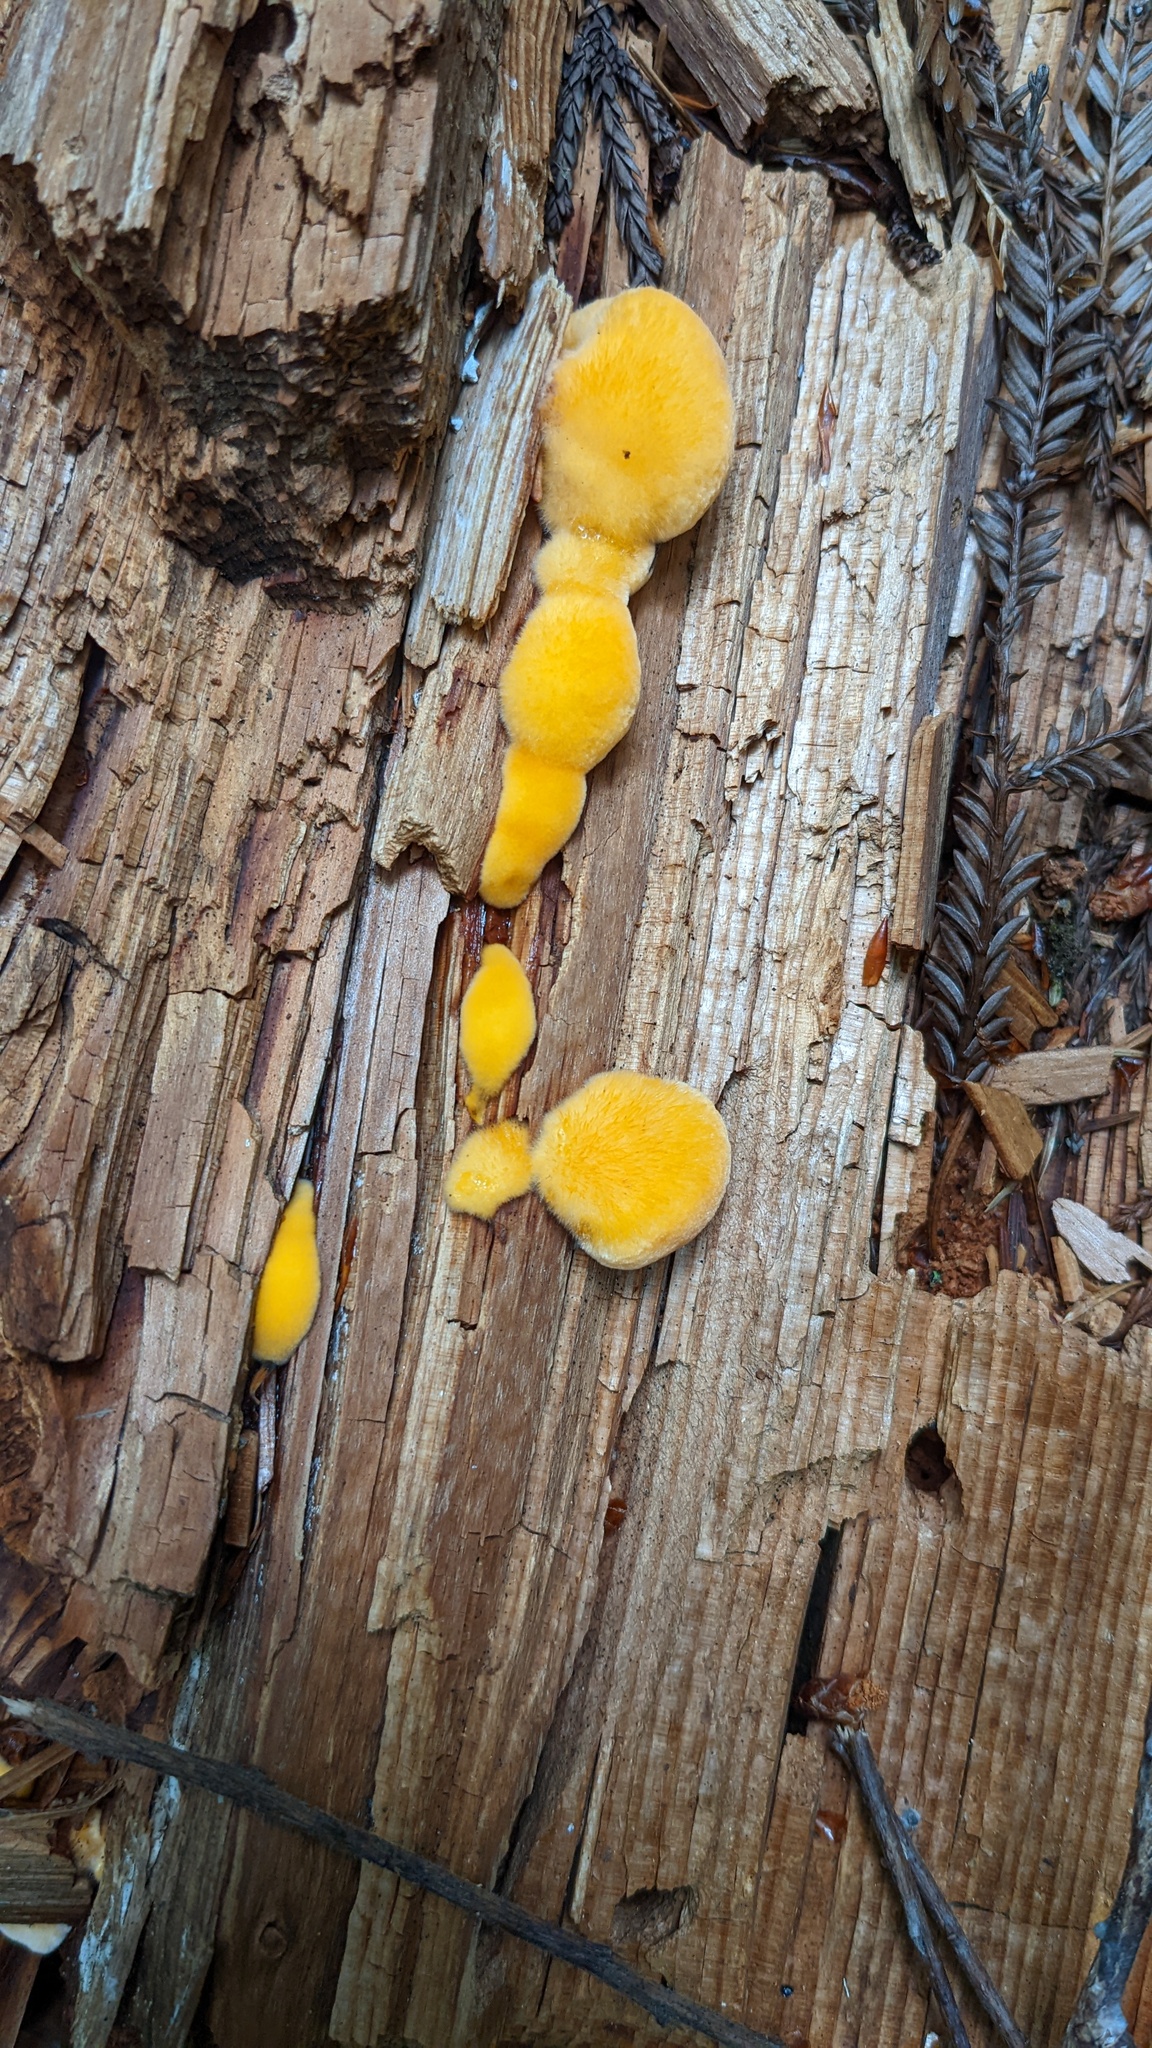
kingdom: Fungi
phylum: Basidiomycota
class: Agaricomycetes
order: Polyporales
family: Pycnoporellaceae
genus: Pycnoporellus
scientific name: Pycnoporellus fulgens
